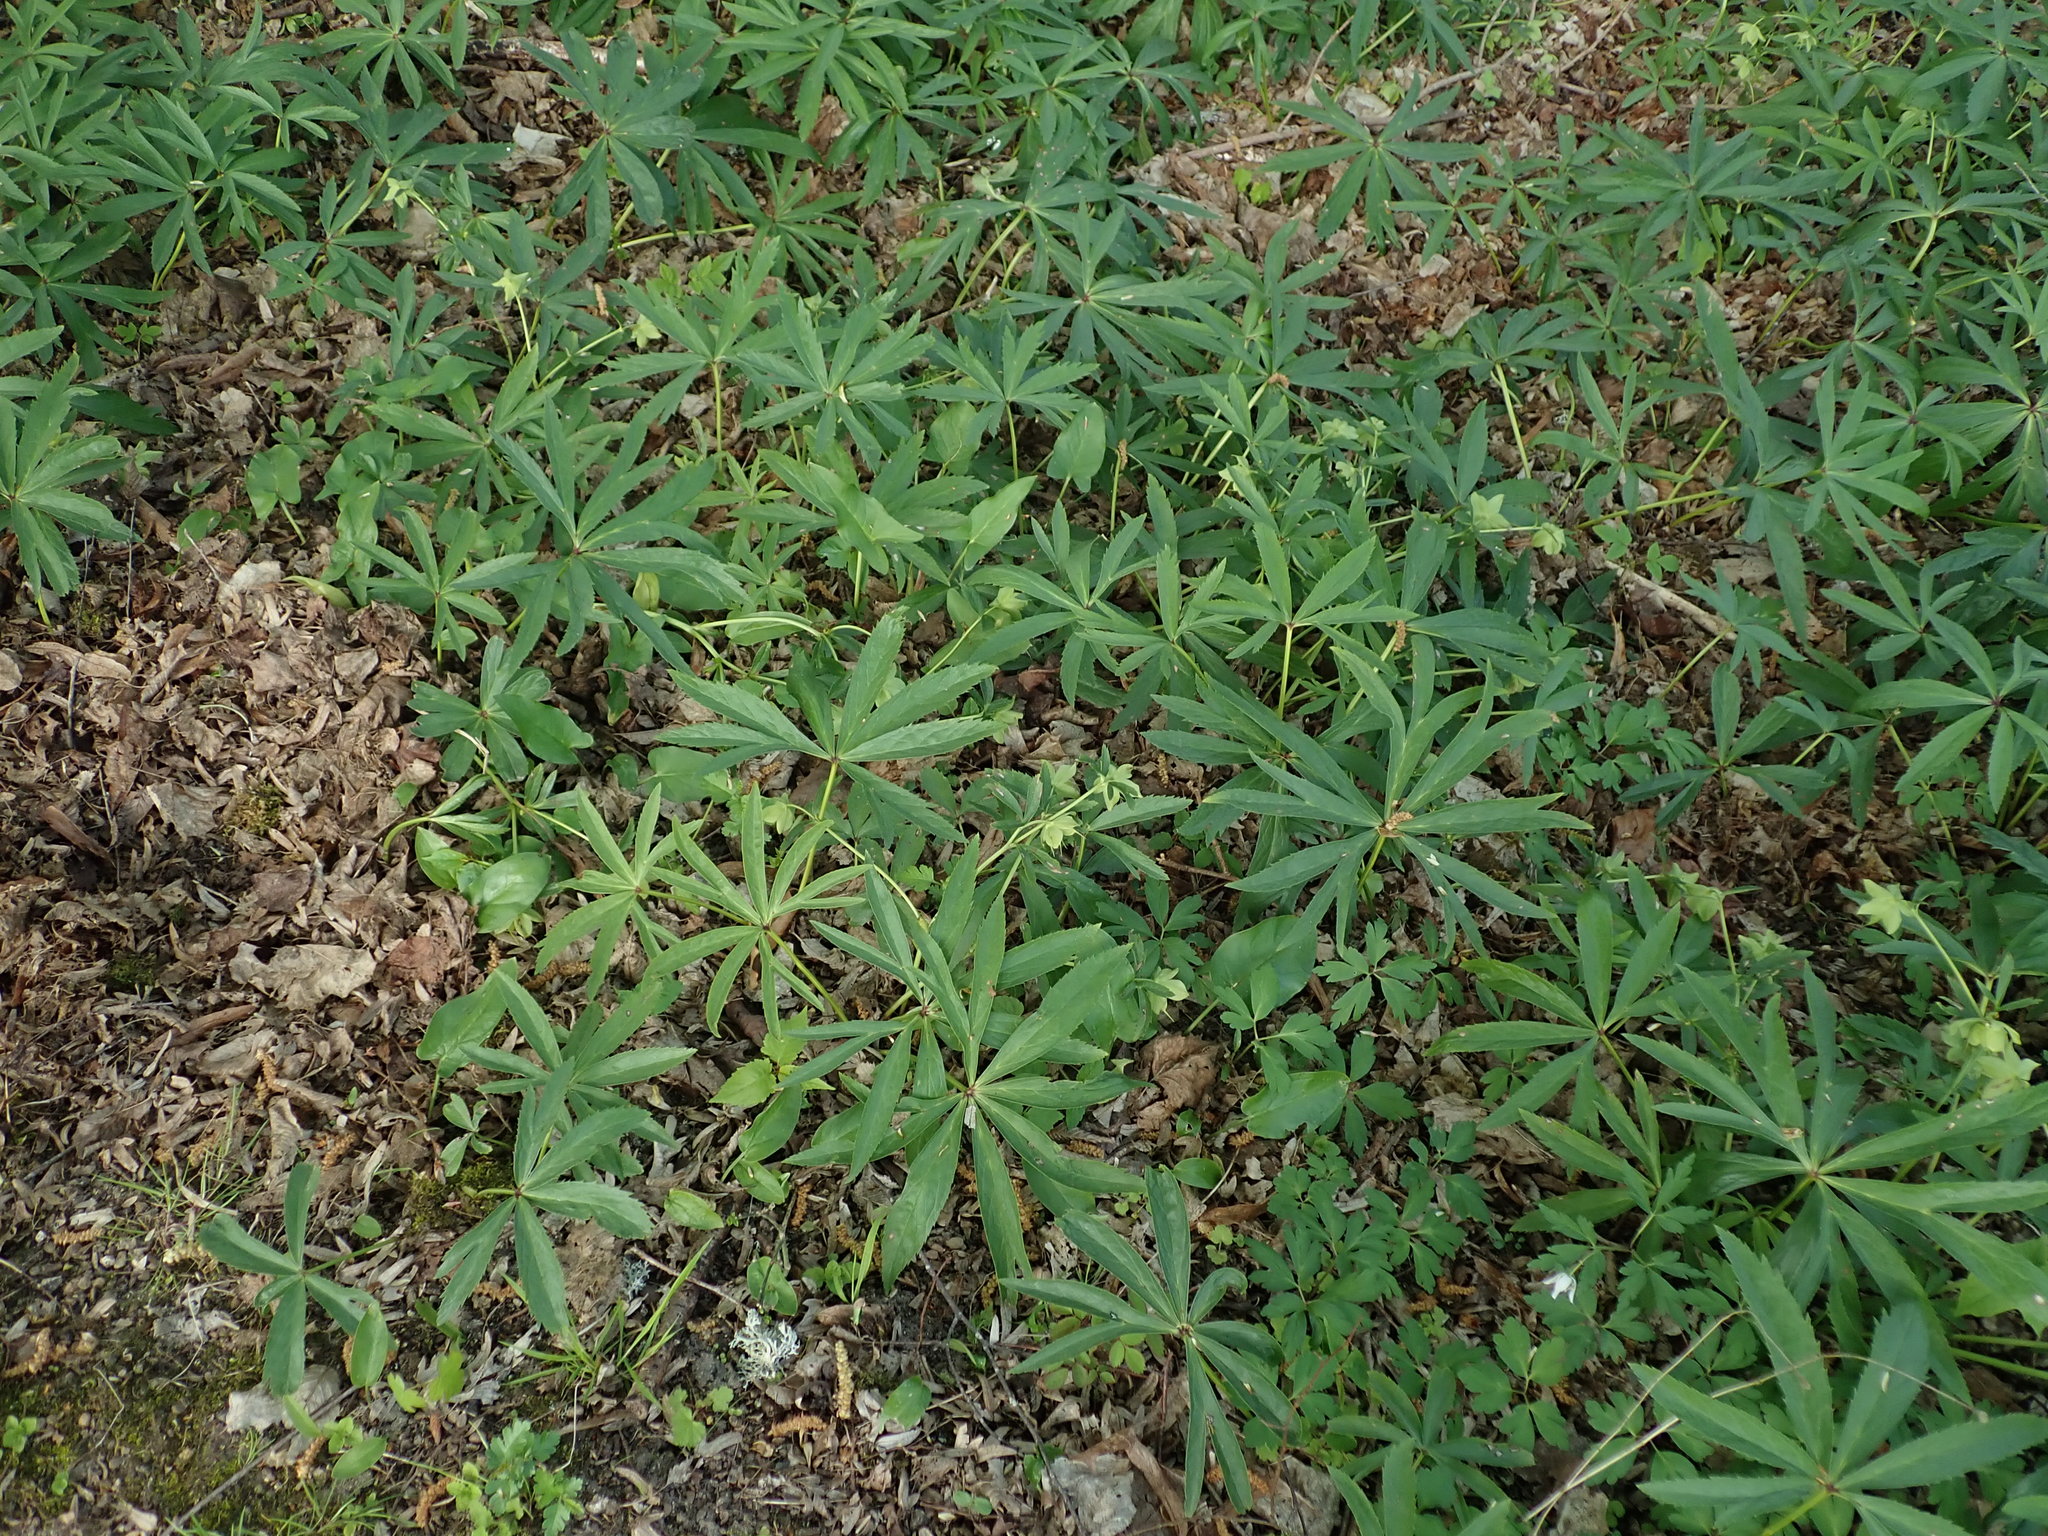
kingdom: Plantae
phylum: Tracheophyta
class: Magnoliopsida
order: Ranunculales
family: Ranunculaceae
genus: Helleborus
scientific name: Helleborus viridis
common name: Green hellebore
